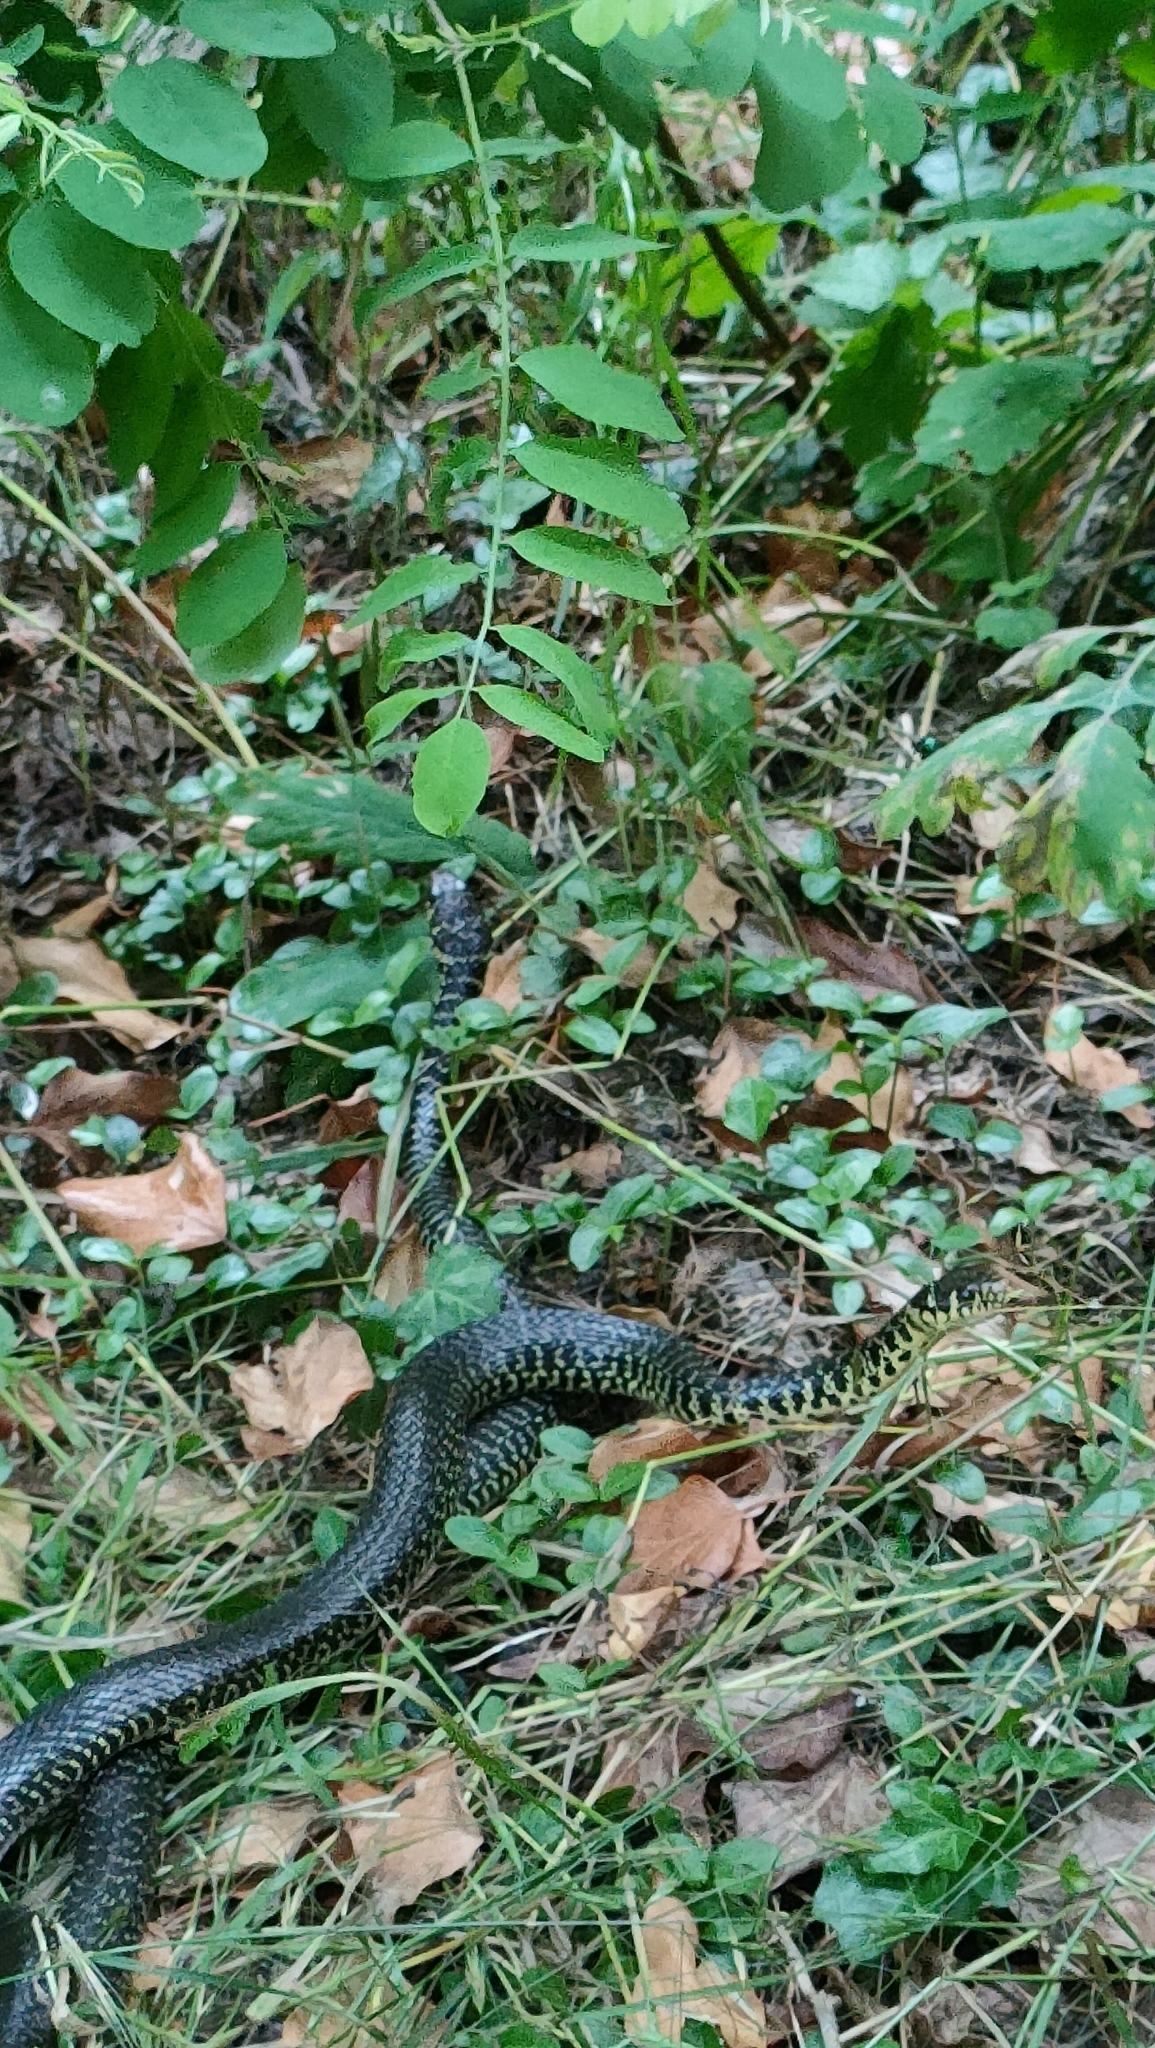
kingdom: Animalia
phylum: Chordata
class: Squamata
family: Colubridae
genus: Hierophis
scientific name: Hierophis viridiflavus
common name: Green whip snake
